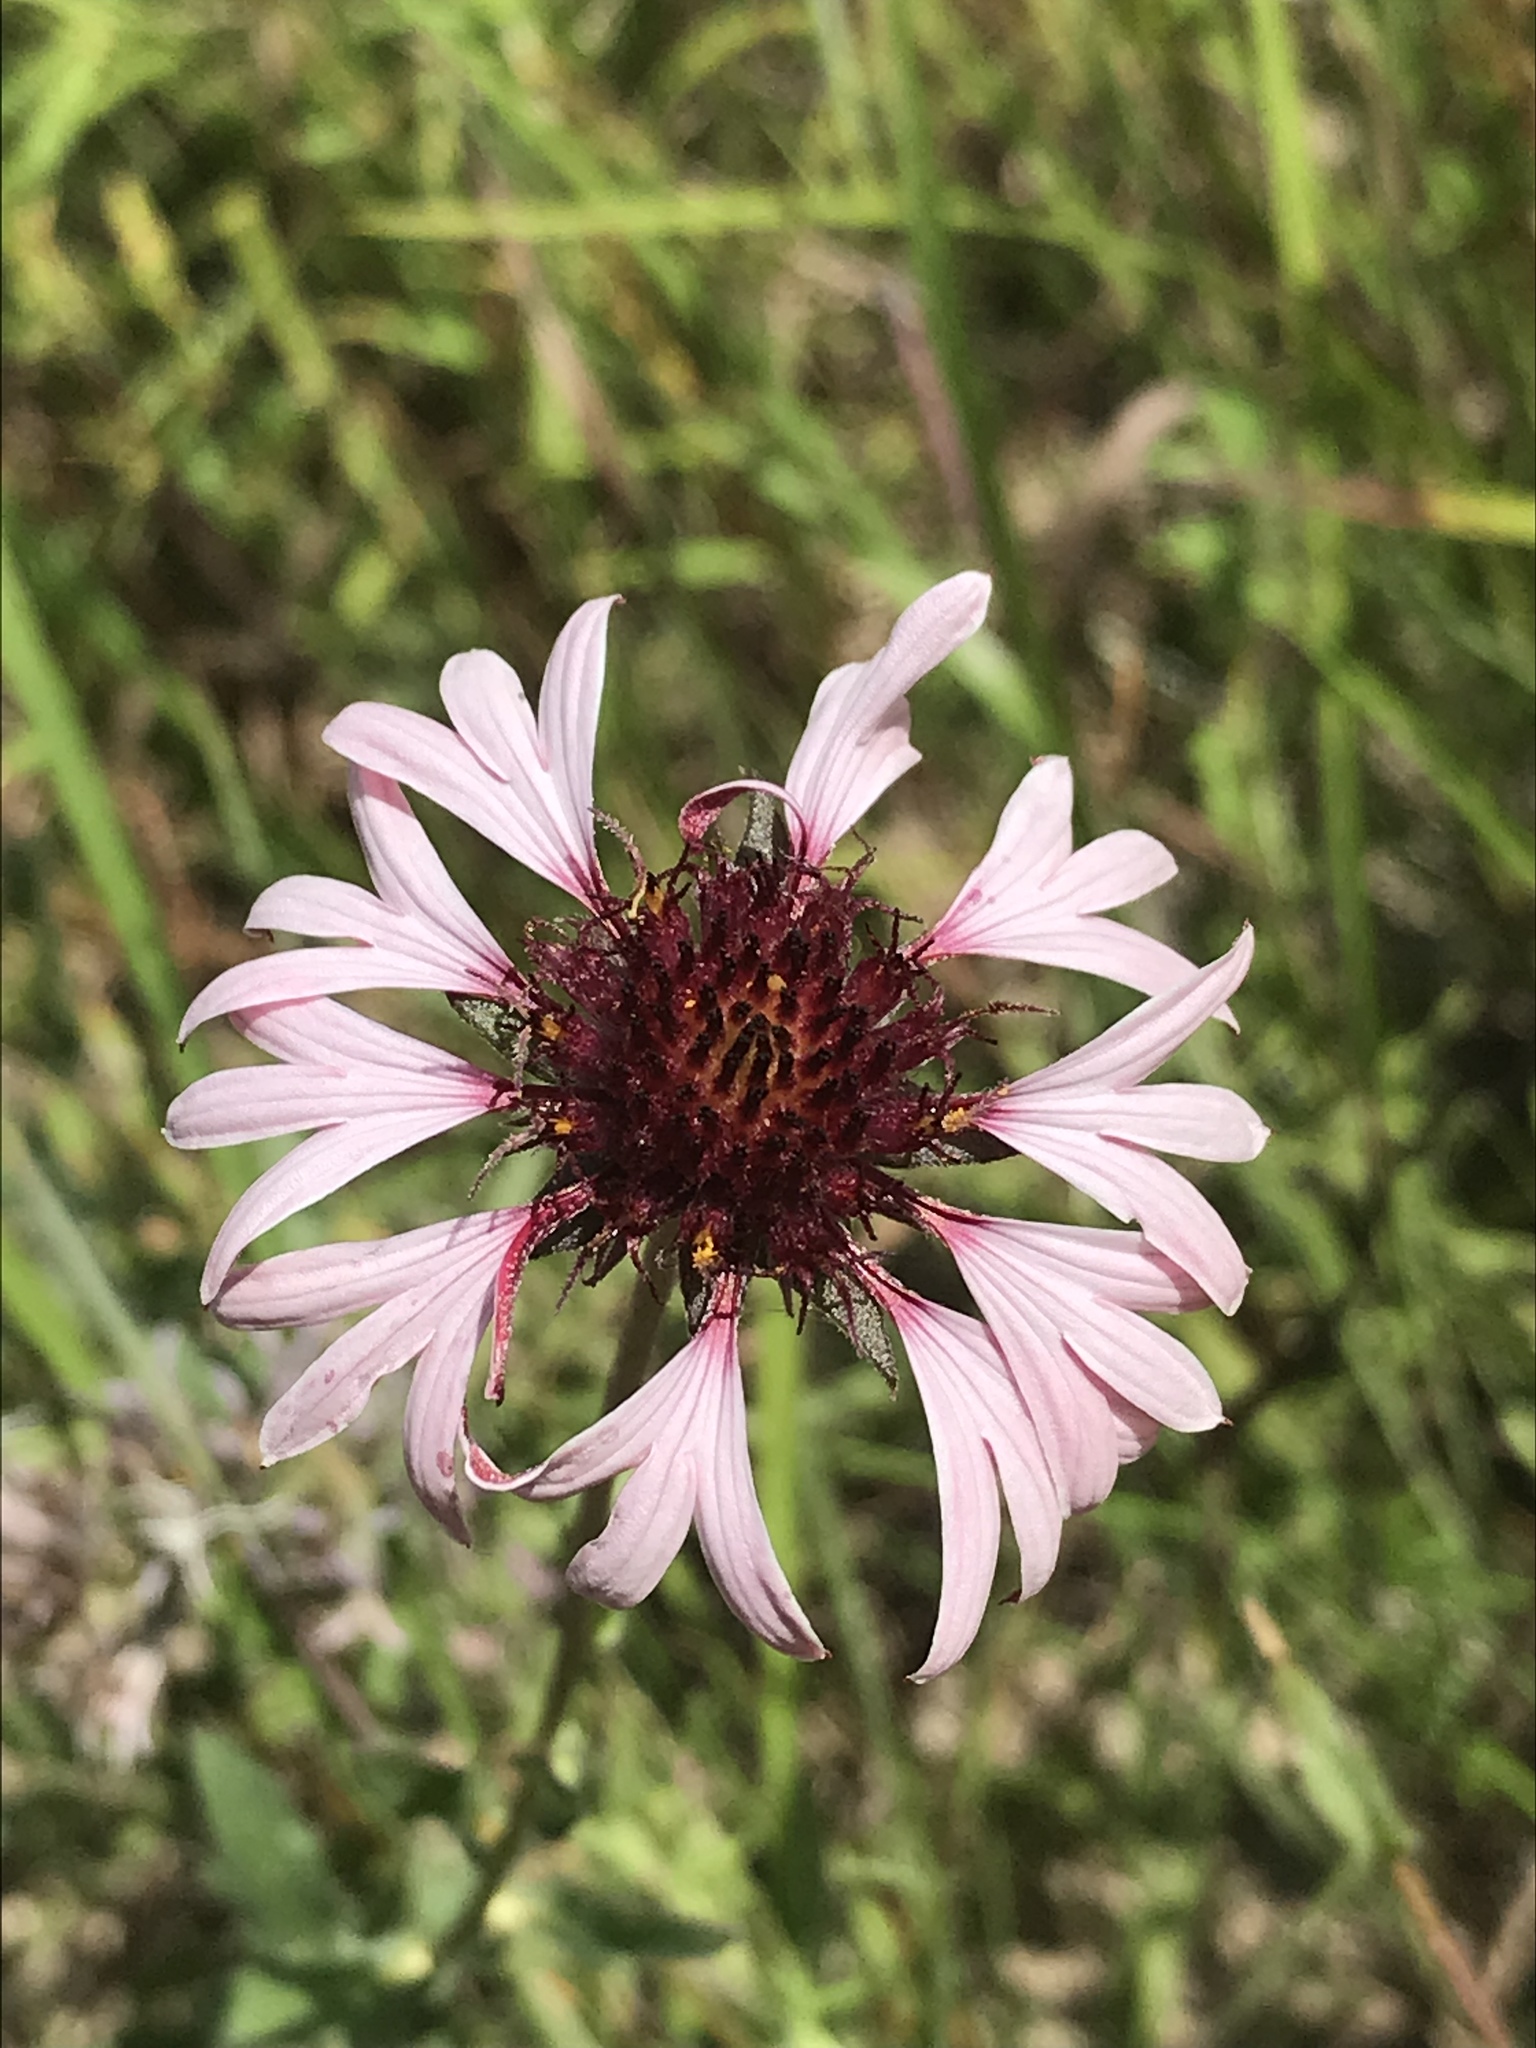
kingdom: Plantae
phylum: Tracheophyta
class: Magnoliopsida
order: Asterales
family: Asteraceae
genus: Gaillardia
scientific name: Gaillardia aestivalis
